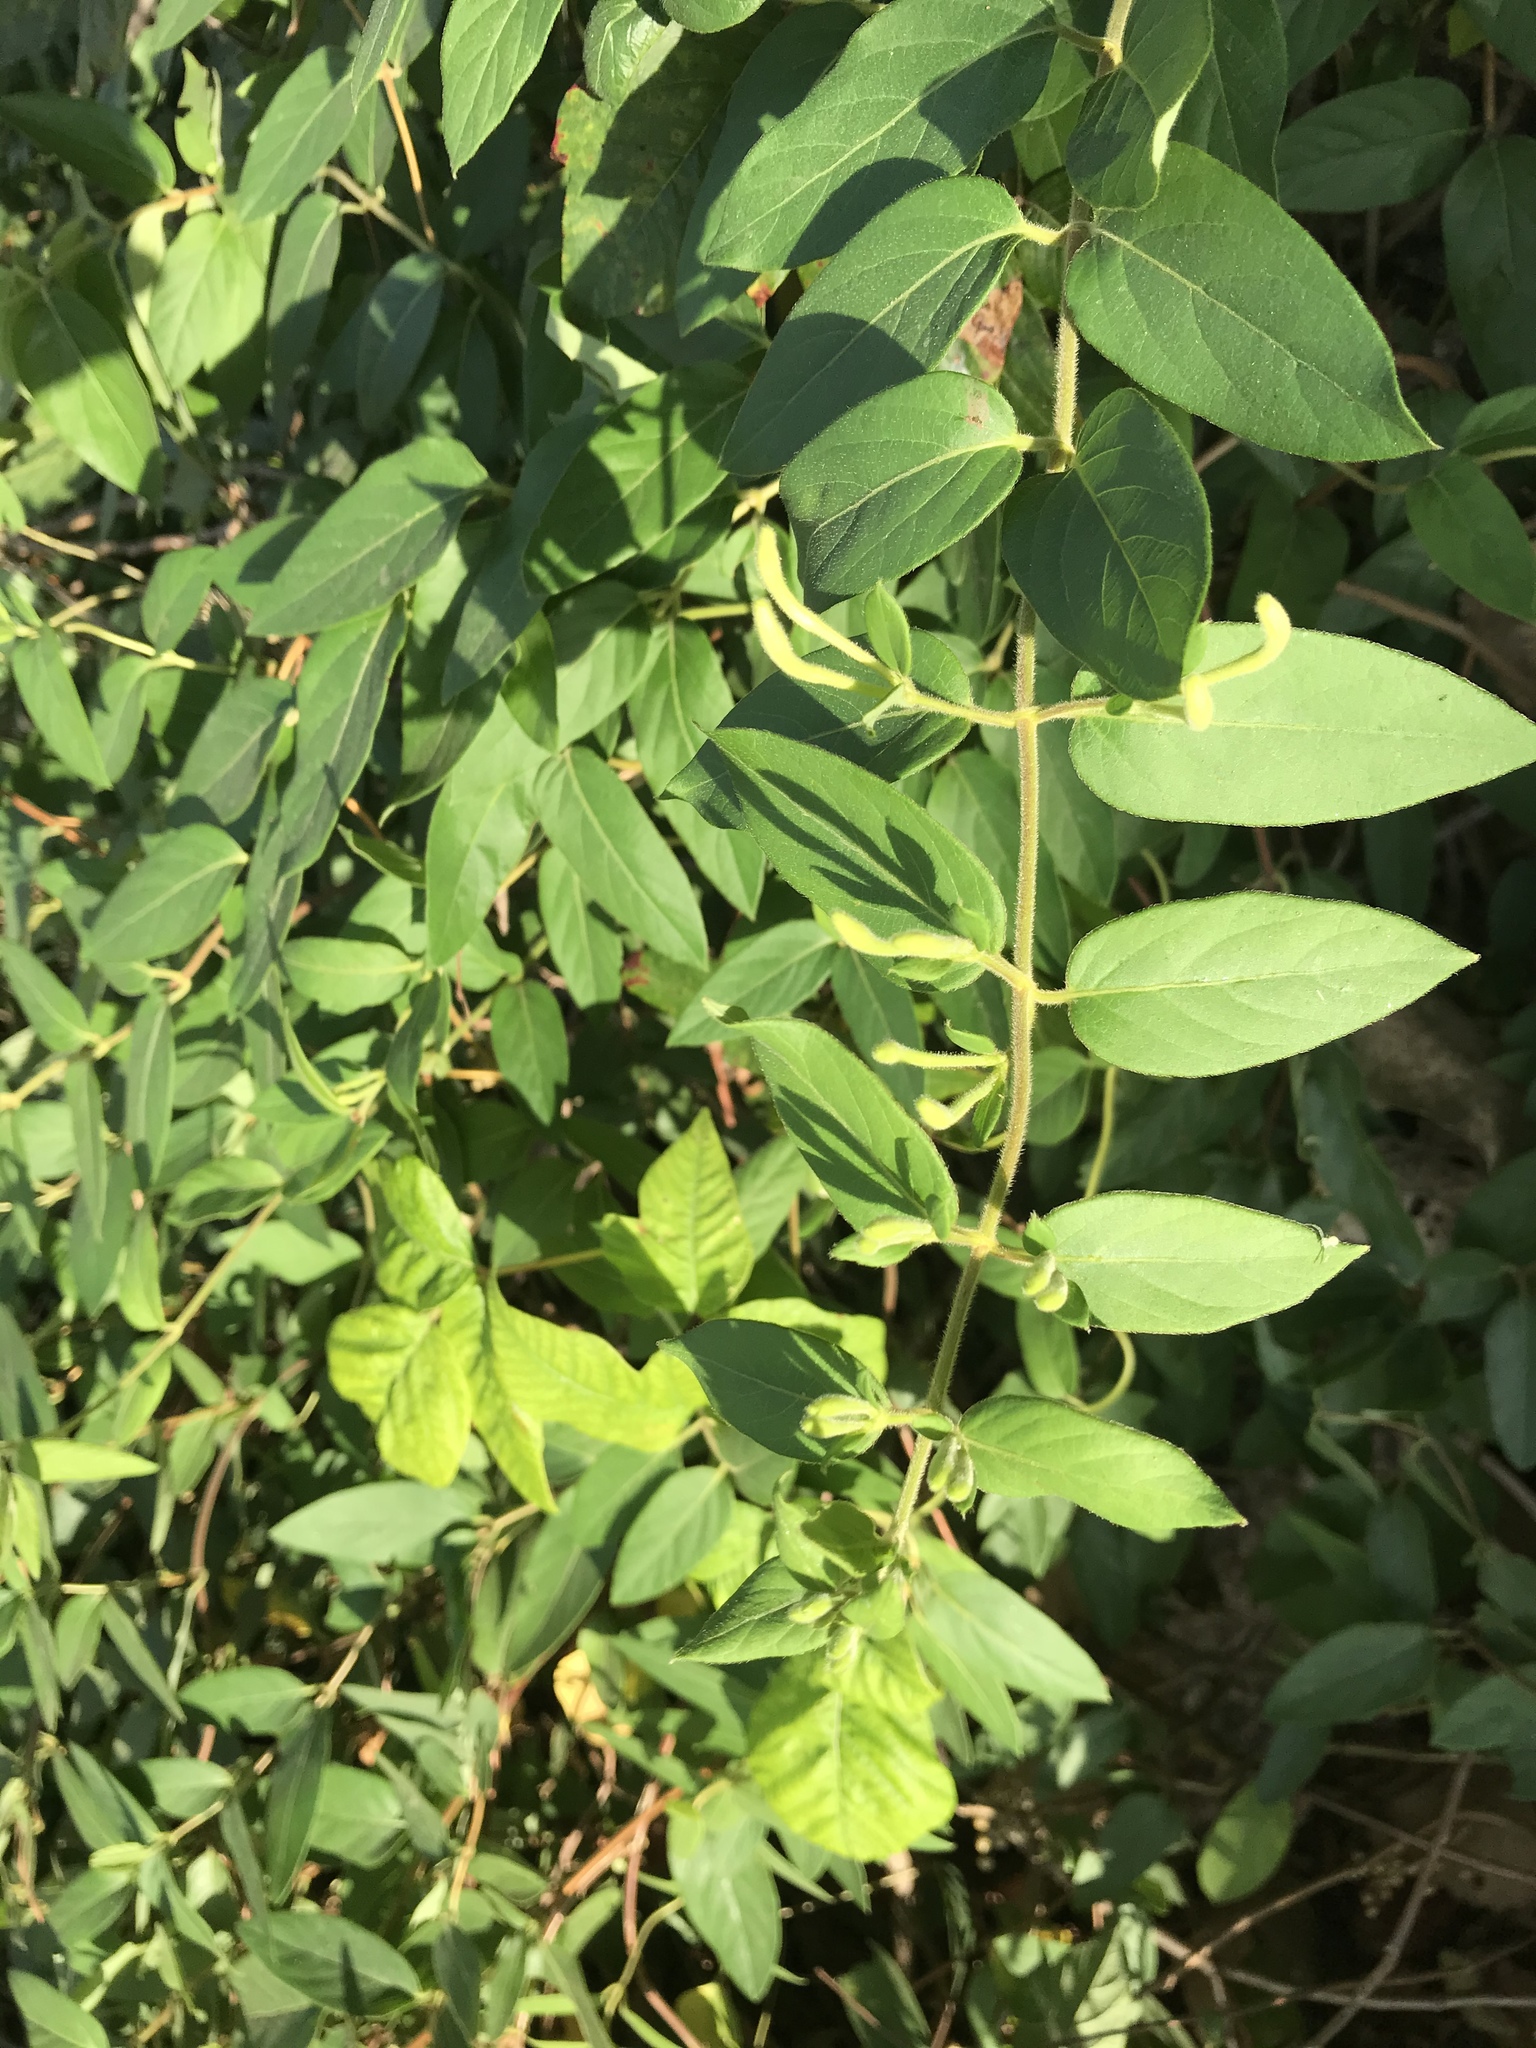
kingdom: Plantae
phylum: Tracheophyta
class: Magnoliopsida
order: Dipsacales
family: Caprifoliaceae
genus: Lonicera
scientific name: Lonicera japonica
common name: Japanese honeysuckle
